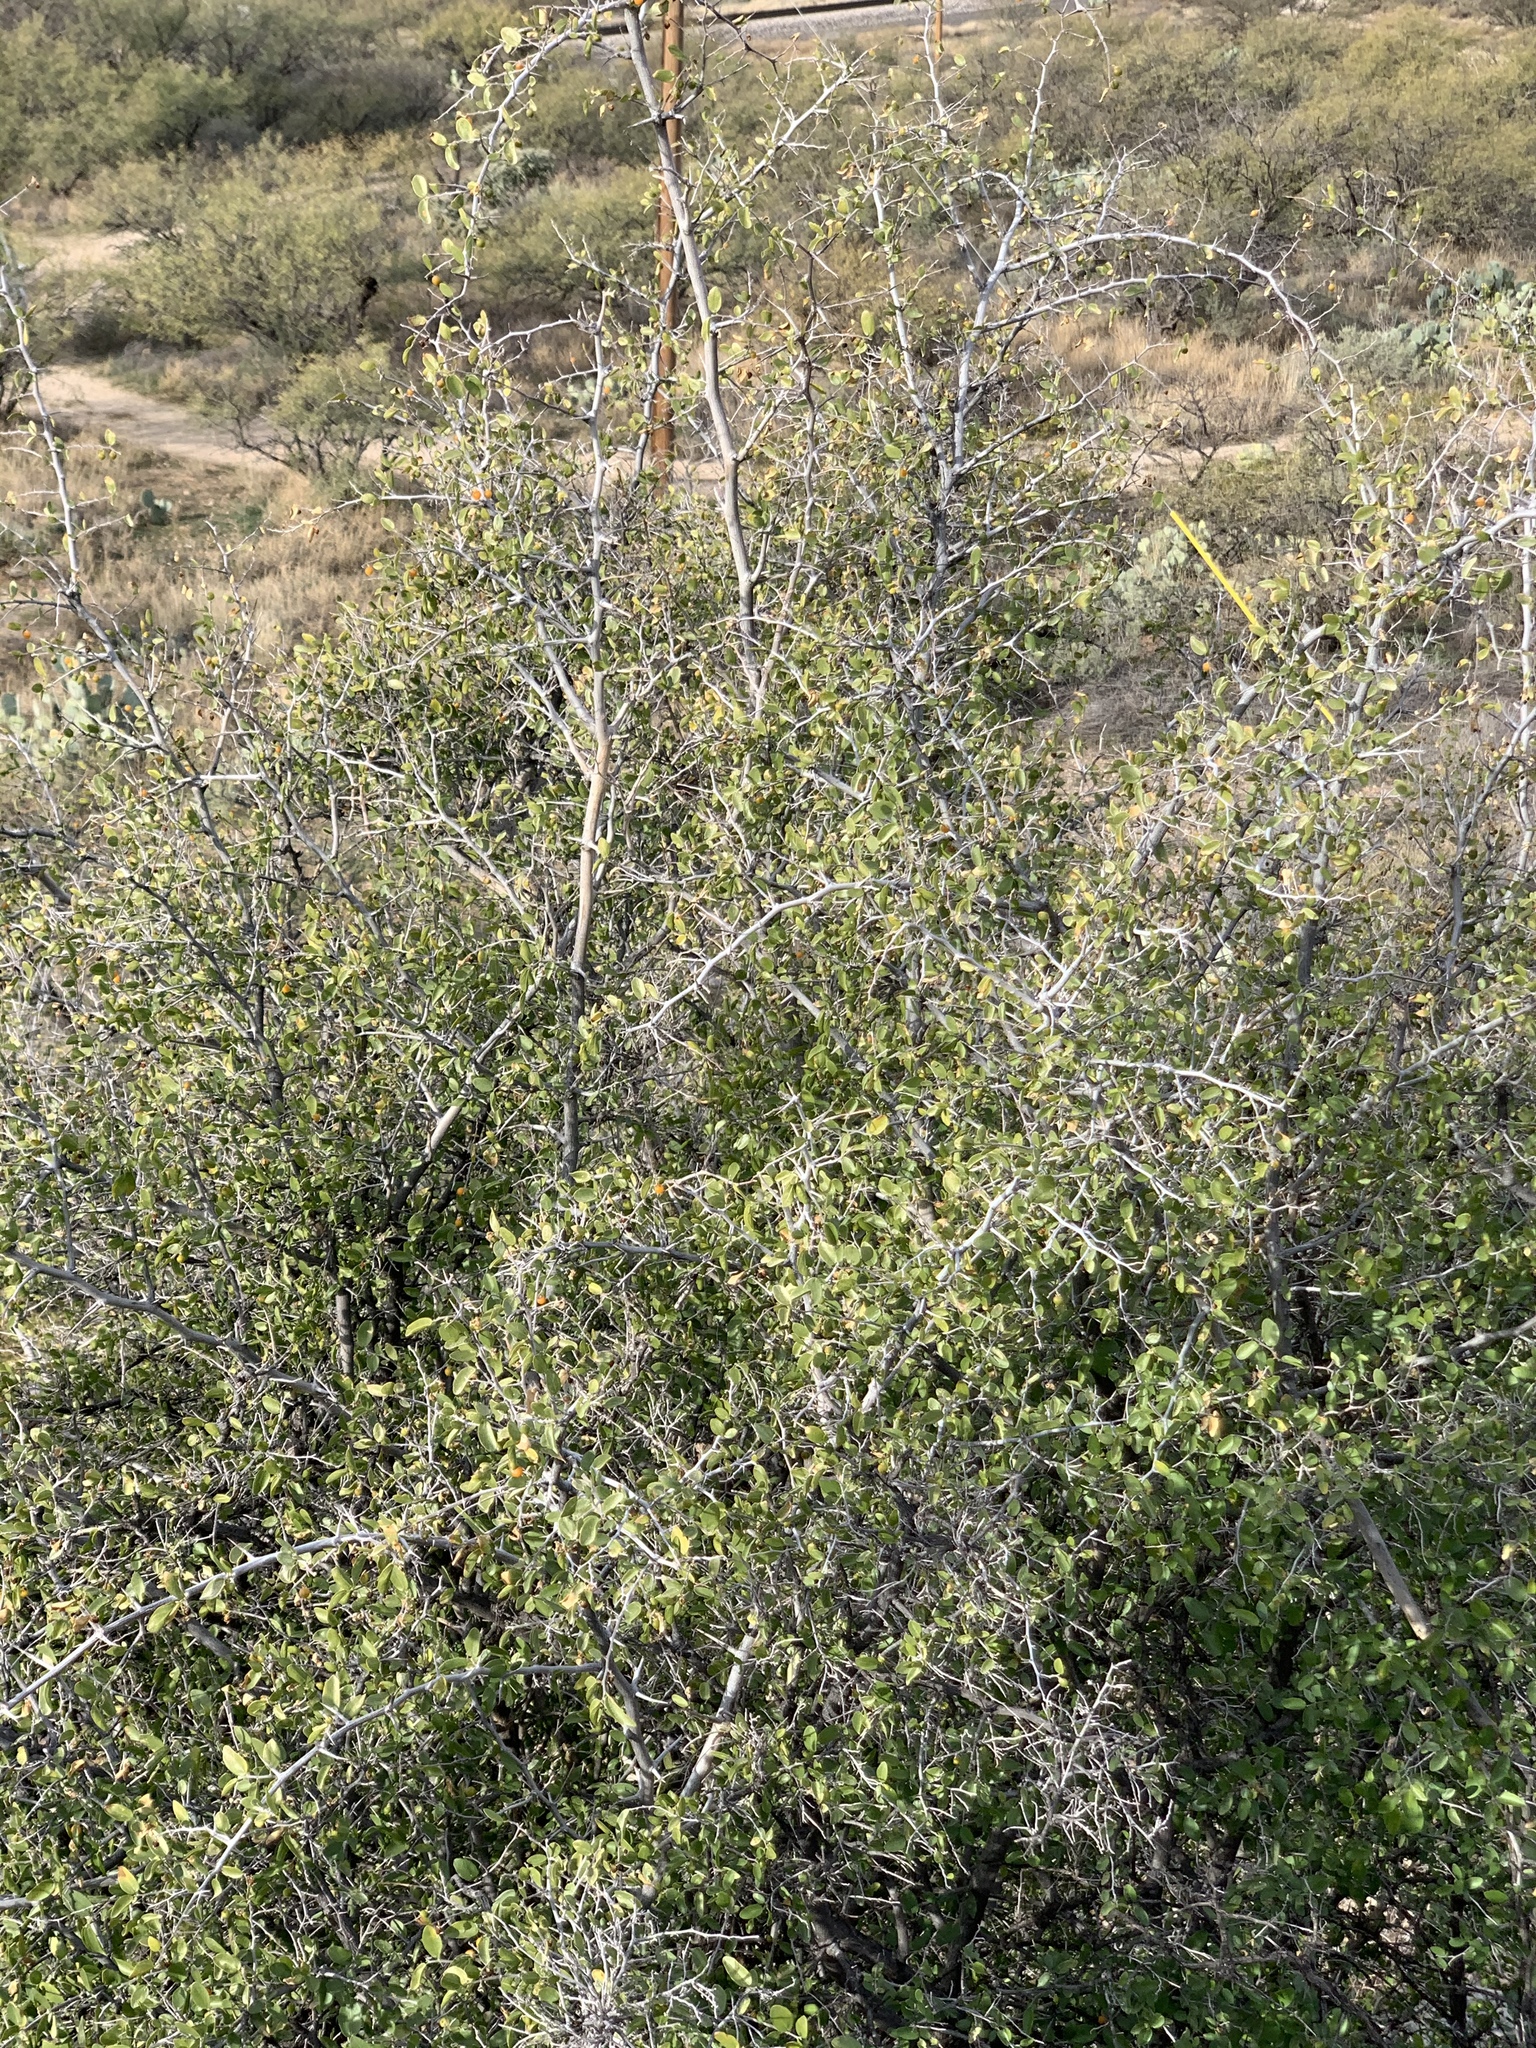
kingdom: Plantae
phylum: Tracheophyta
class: Magnoliopsida
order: Rosales
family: Cannabaceae
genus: Celtis
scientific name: Celtis pallida
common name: Desert hackberry
